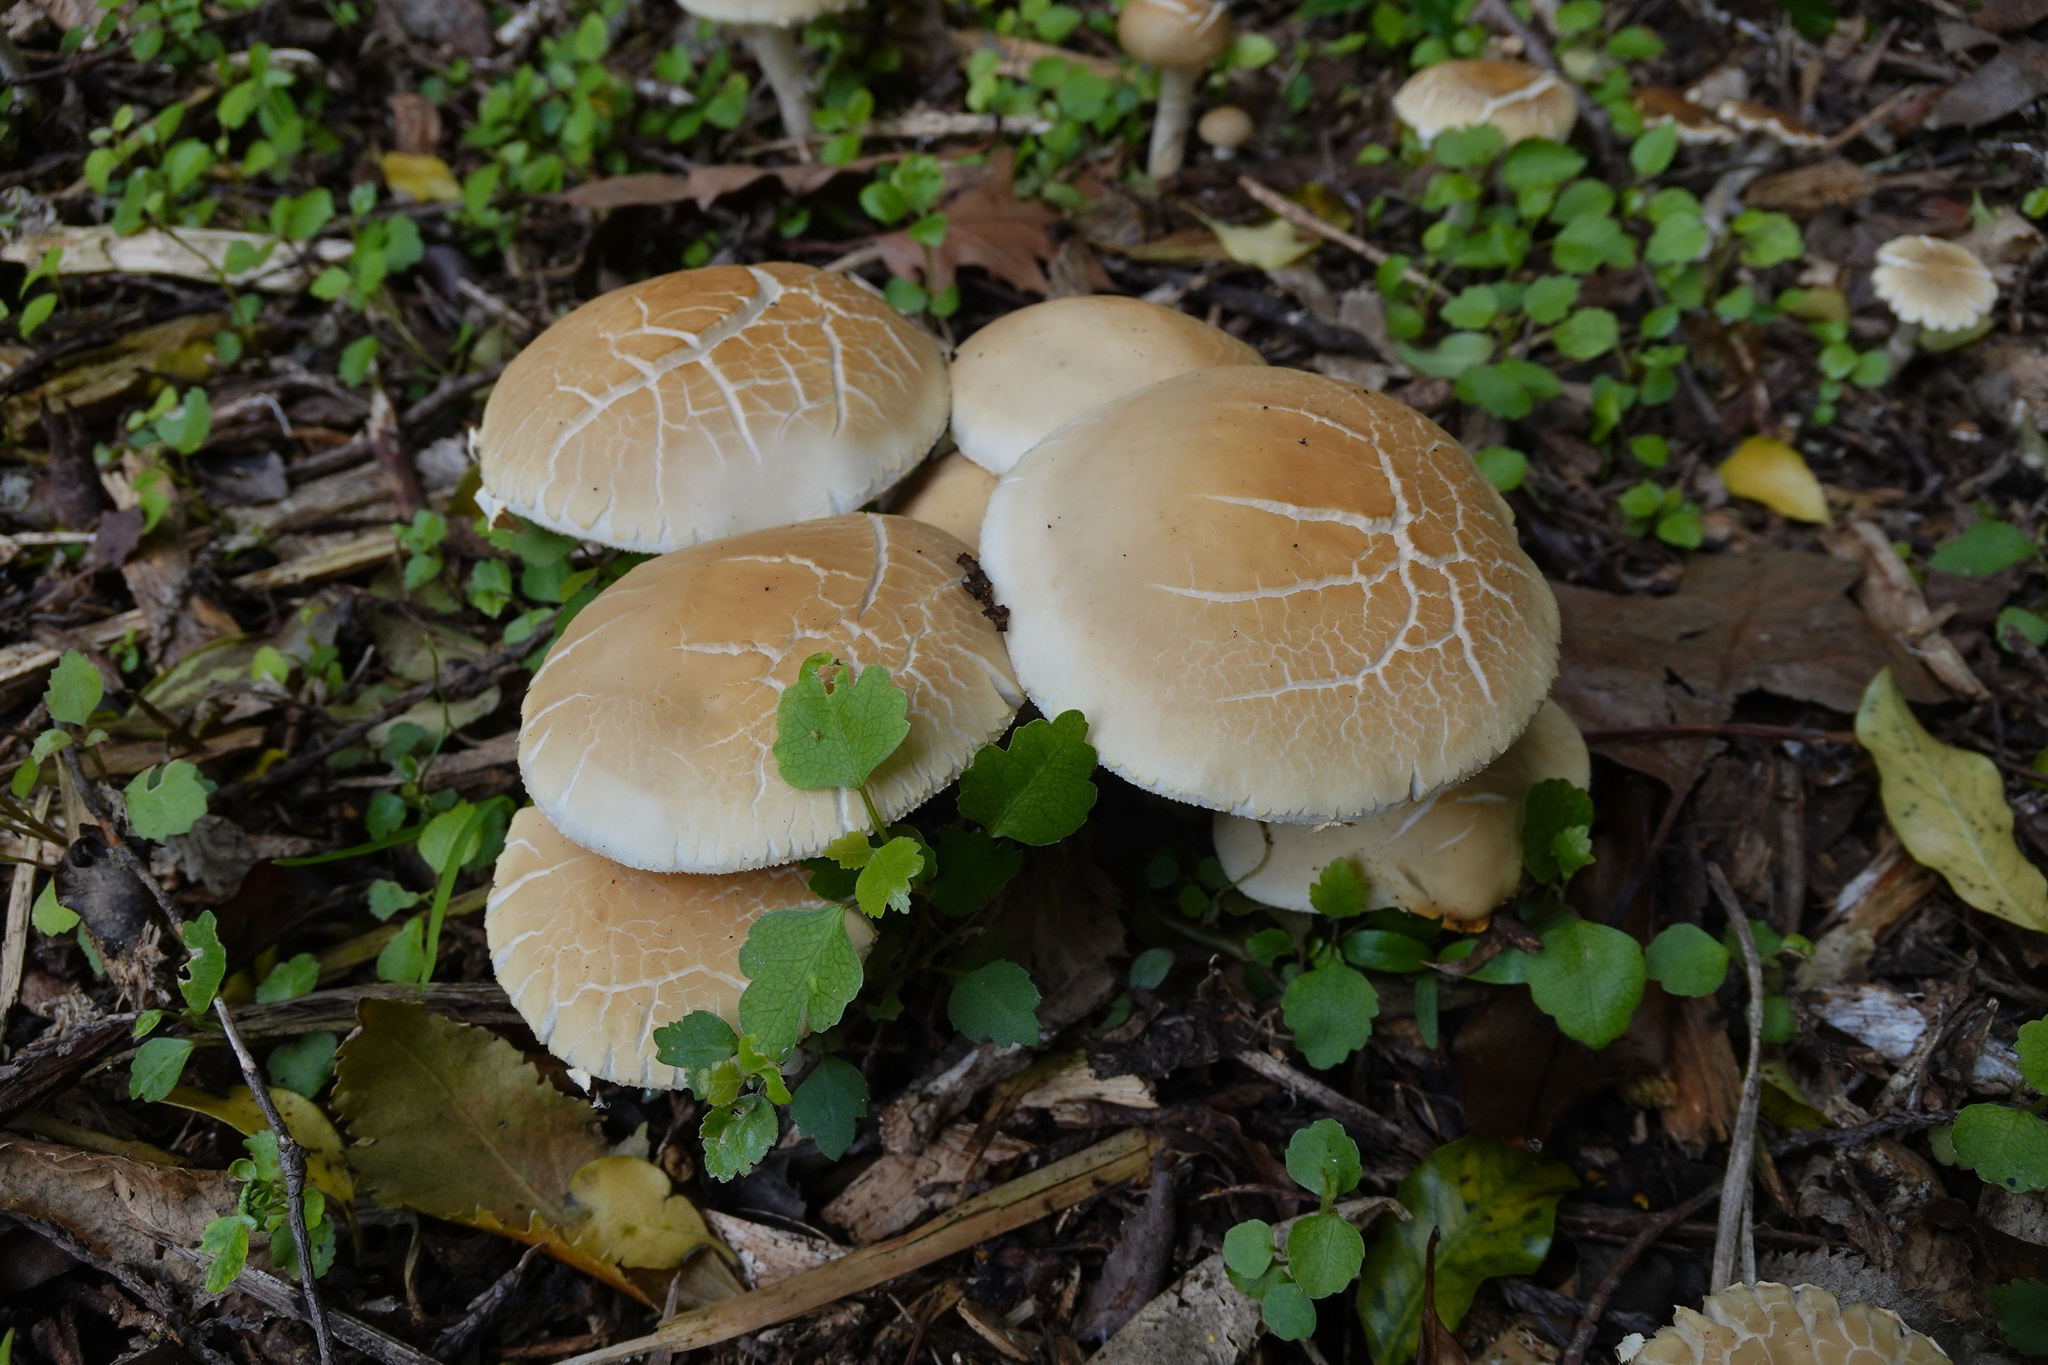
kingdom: Fungi
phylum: Basidiomycota
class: Agaricomycetes
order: Agaricales
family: Strophariaceae
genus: Agrocybe
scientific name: Agrocybe praecox
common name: Spring fieldcap
